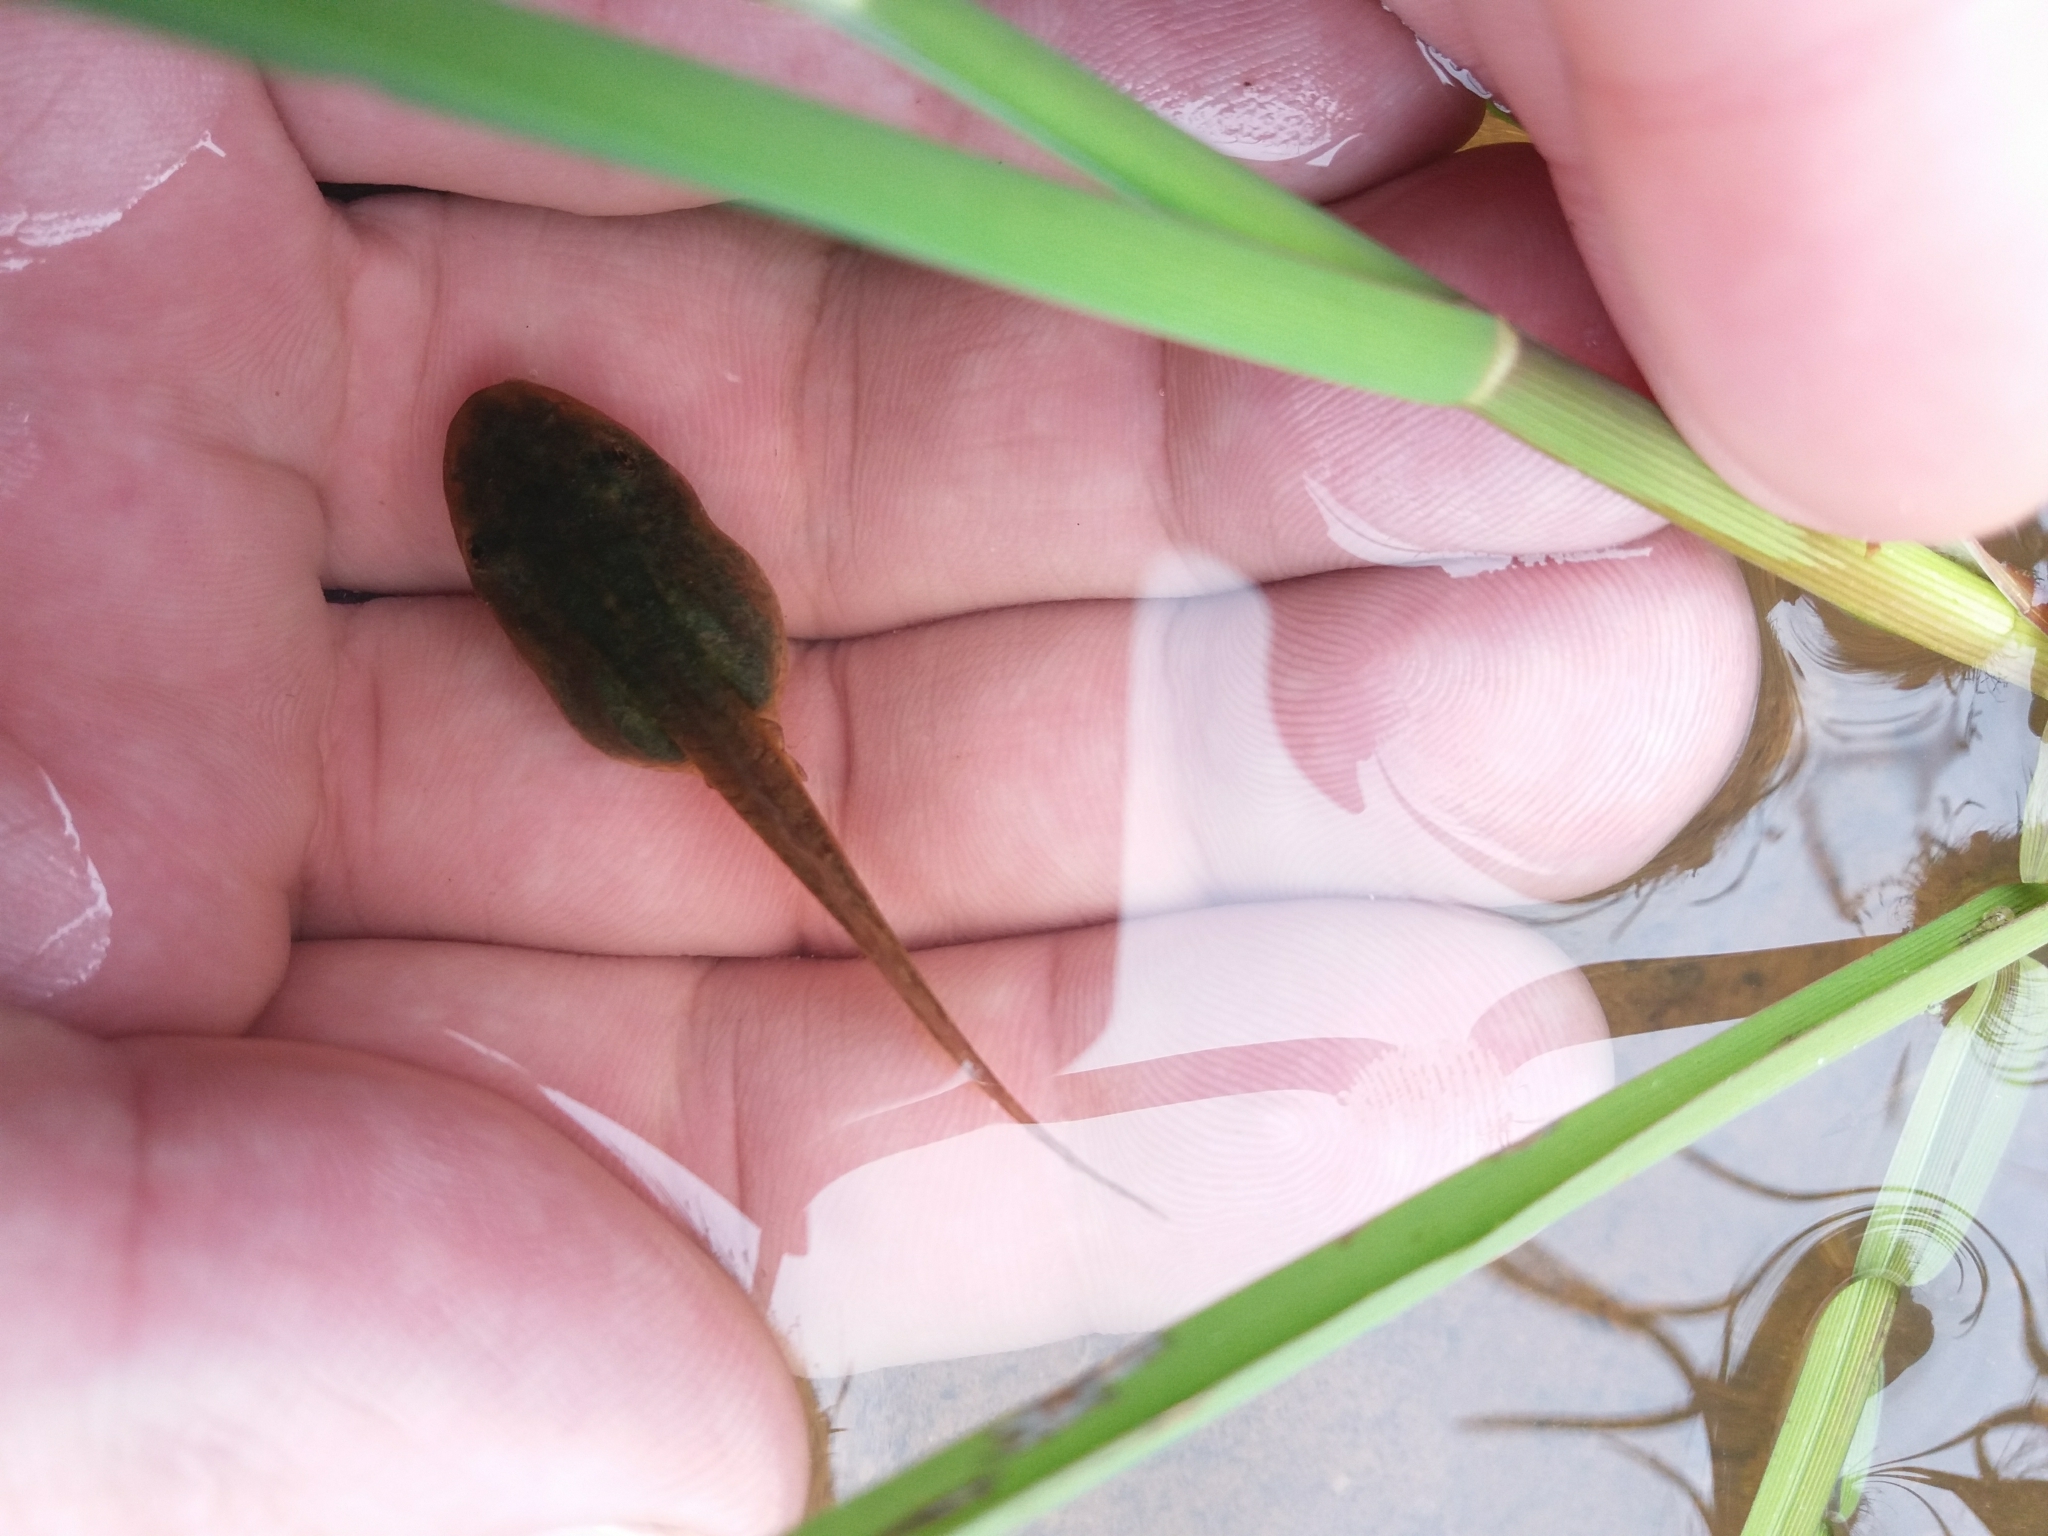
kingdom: Animalia
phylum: Chordata
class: Amphibia
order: Anura
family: Hylidae
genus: Dendropsophus
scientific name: Dendropsophus molitor
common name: Green dotted treefrog
